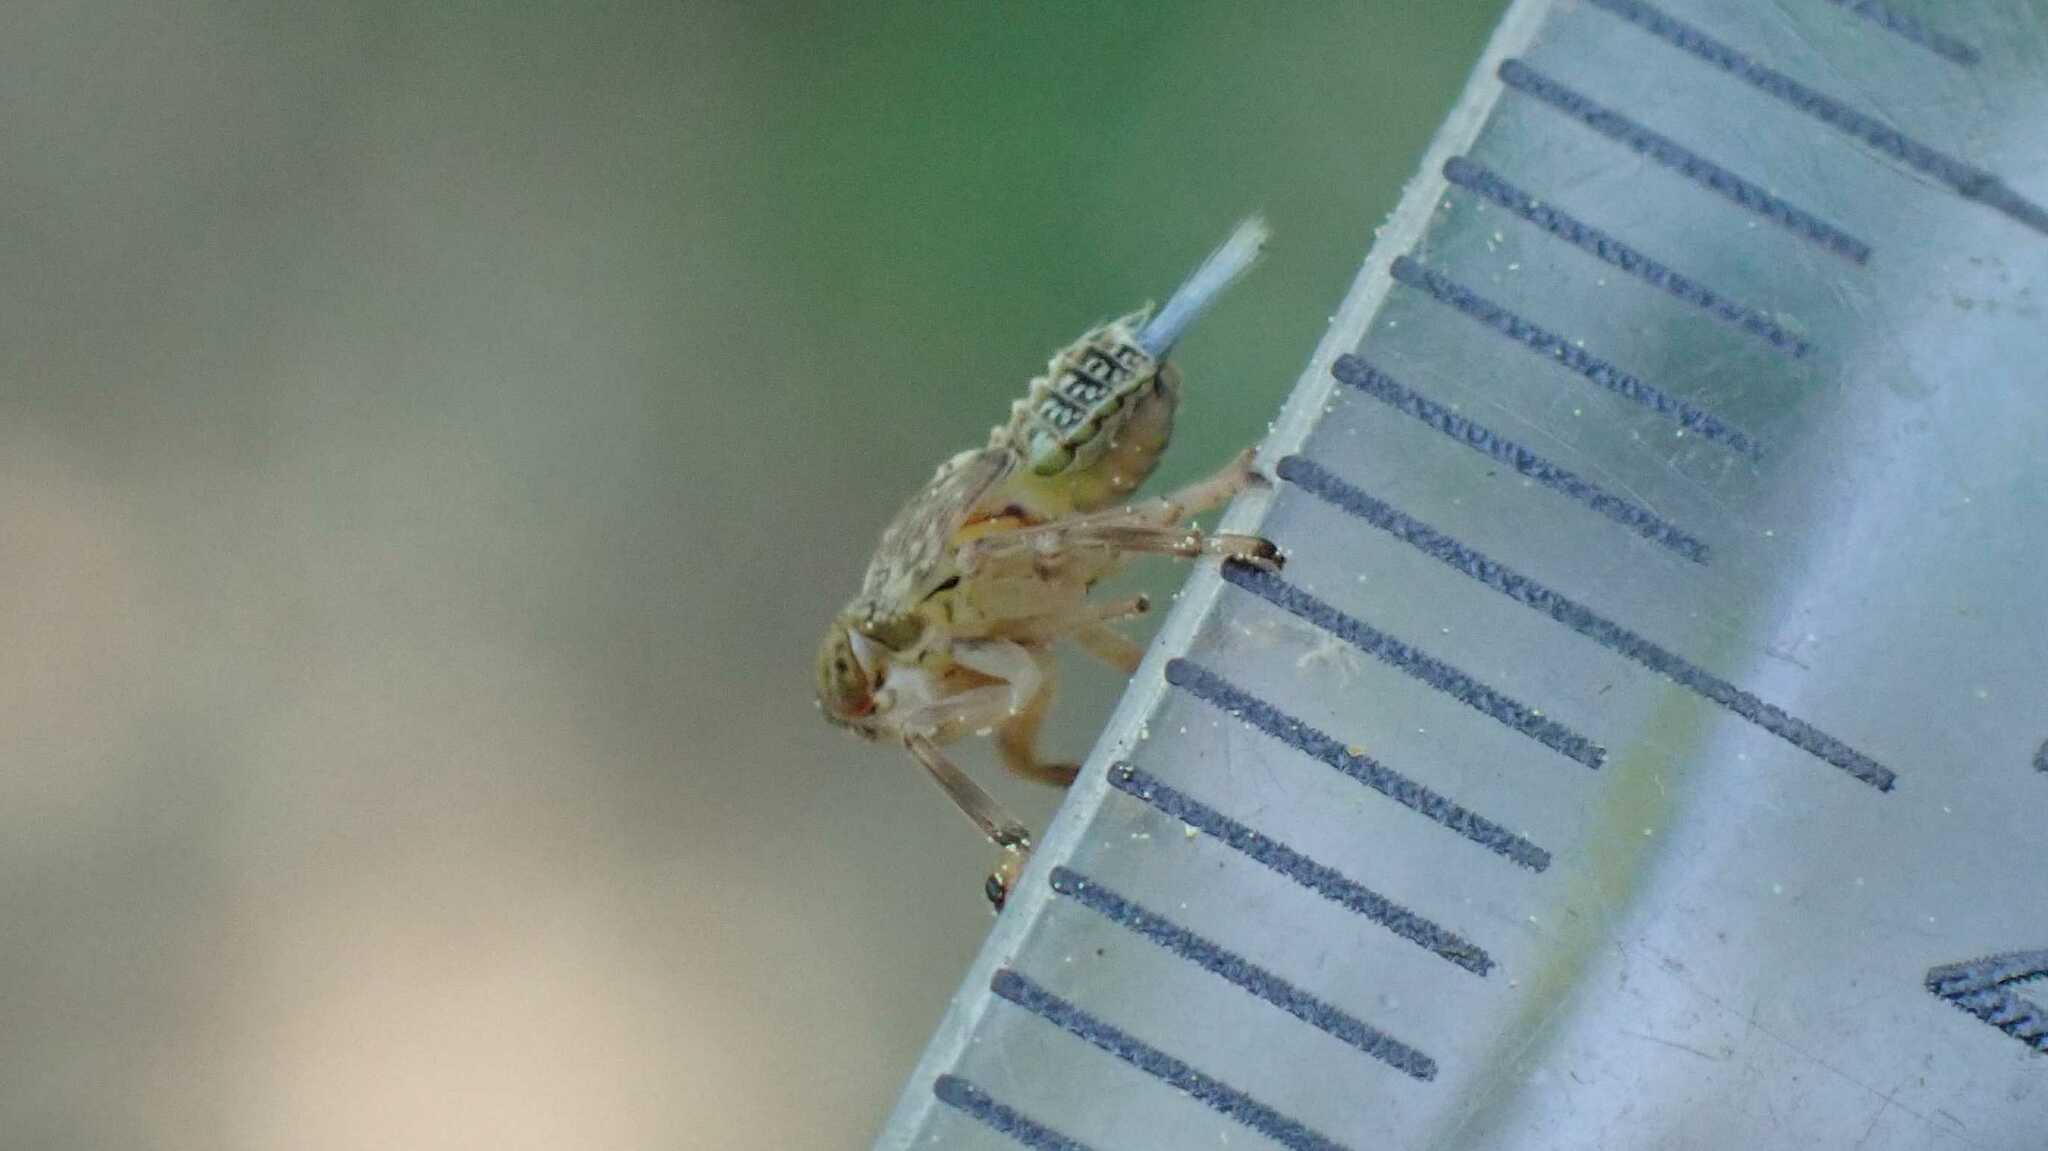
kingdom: Animalia
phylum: Arthropoda
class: Insecta
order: Hemiptera
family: Issidae
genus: Issus
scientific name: Issus coleoptratus
